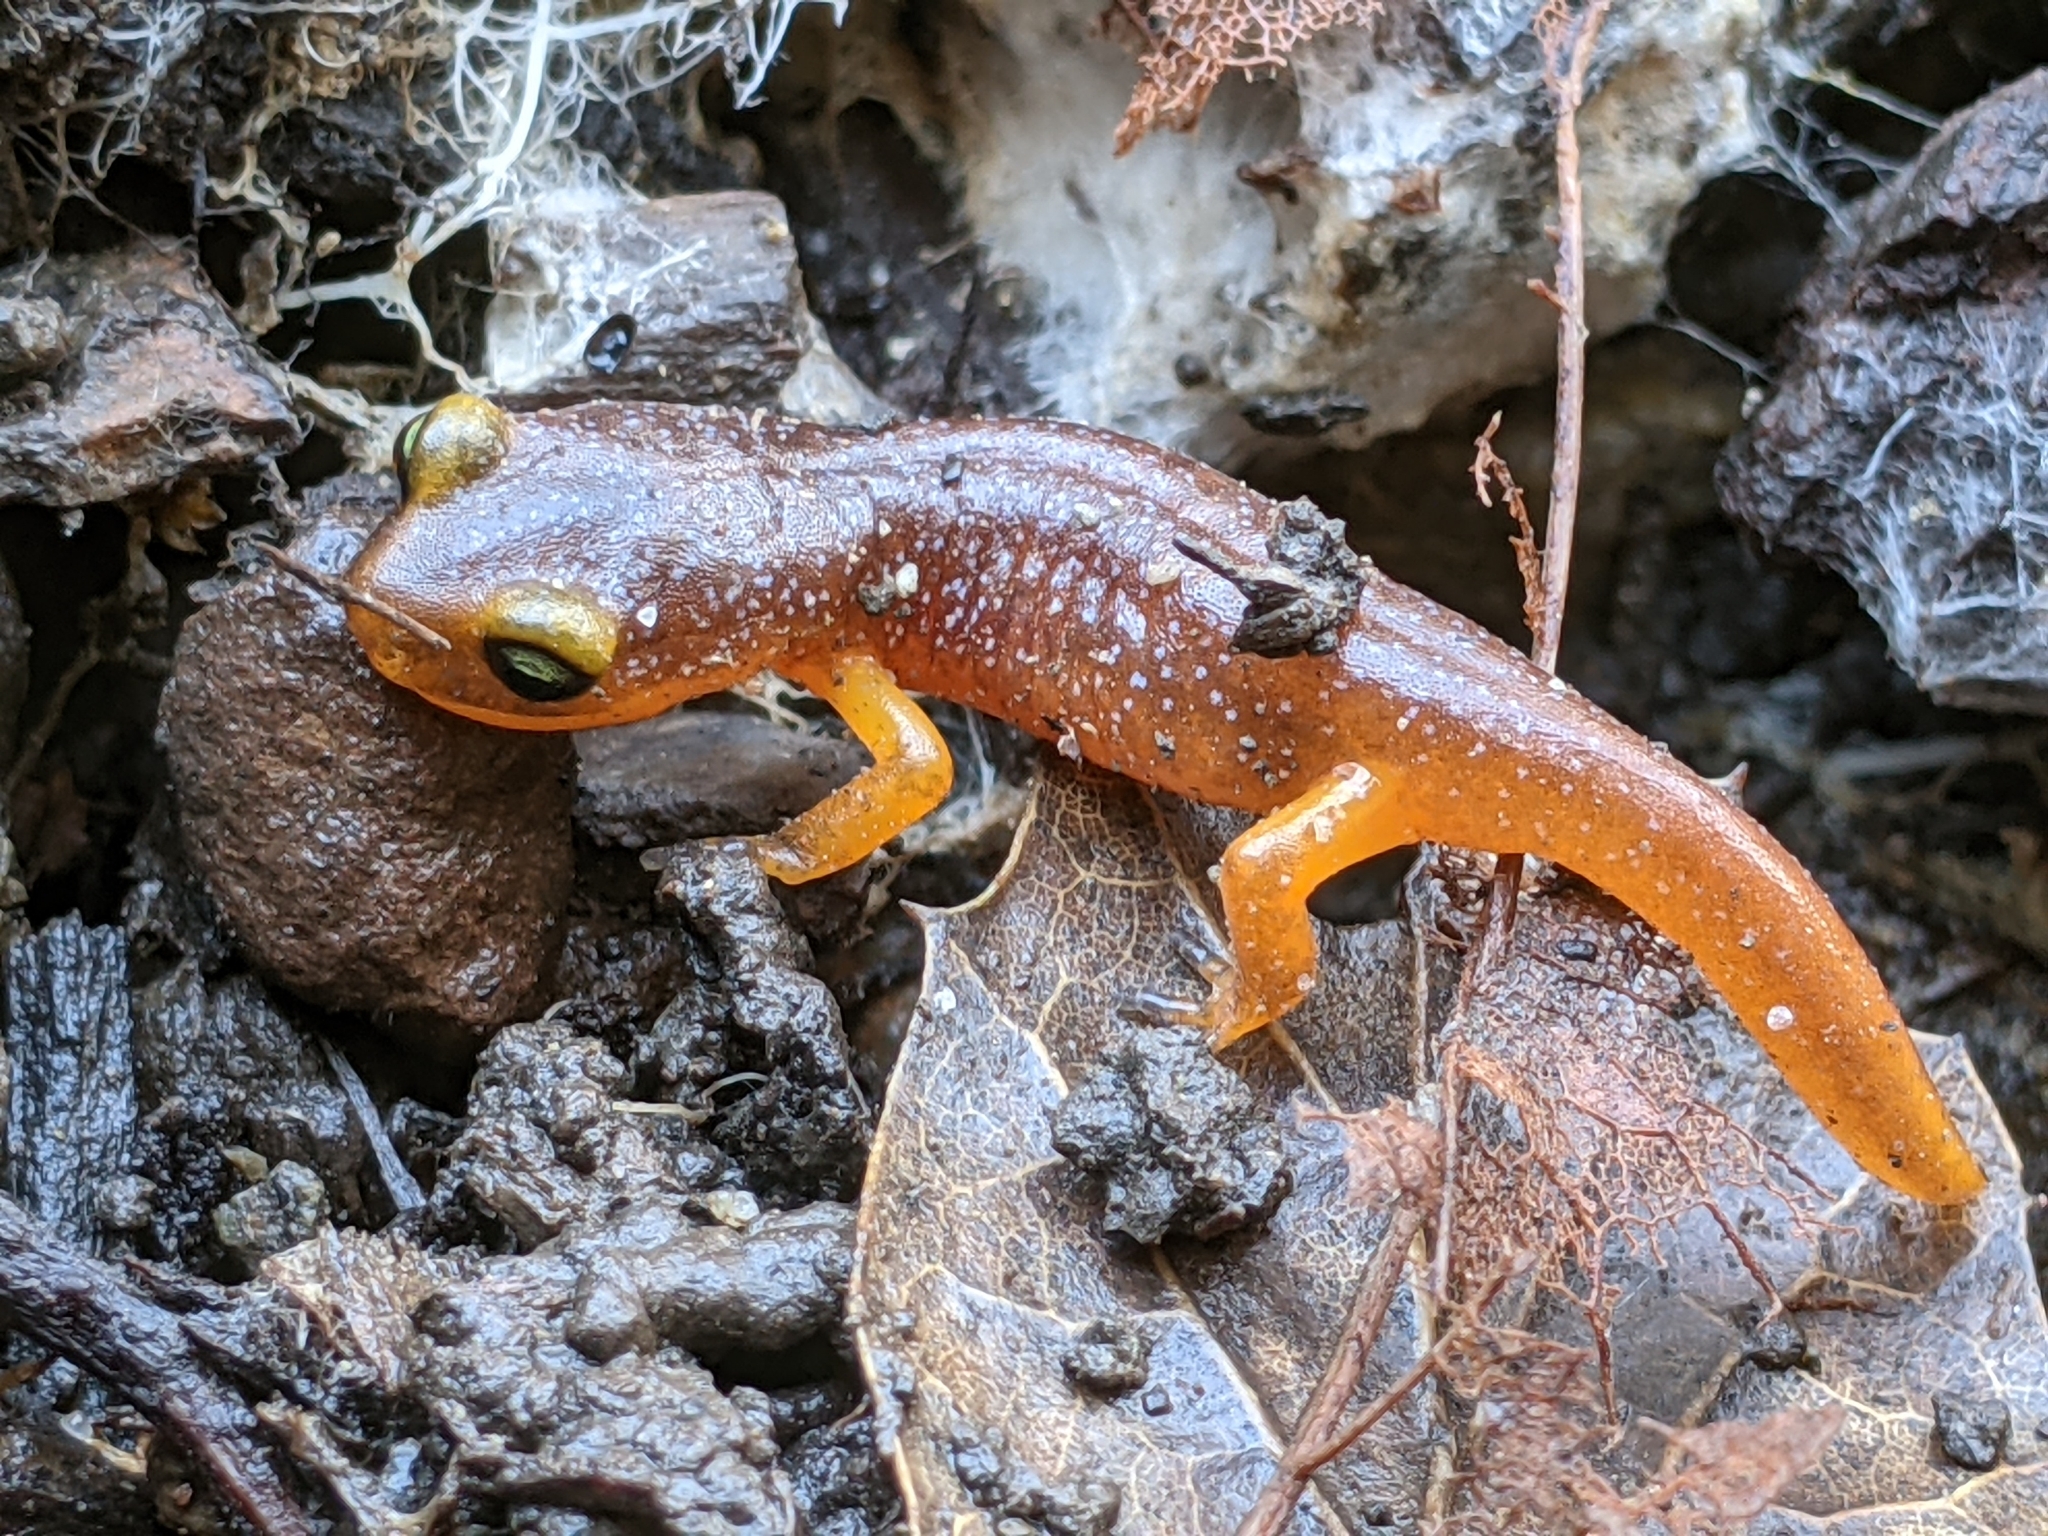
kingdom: Animalia
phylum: Chordata
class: Amphibia
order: Caudata
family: Plethodontidae
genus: Ensatina
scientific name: Ensatina eschscholtzii
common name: Ensatina
